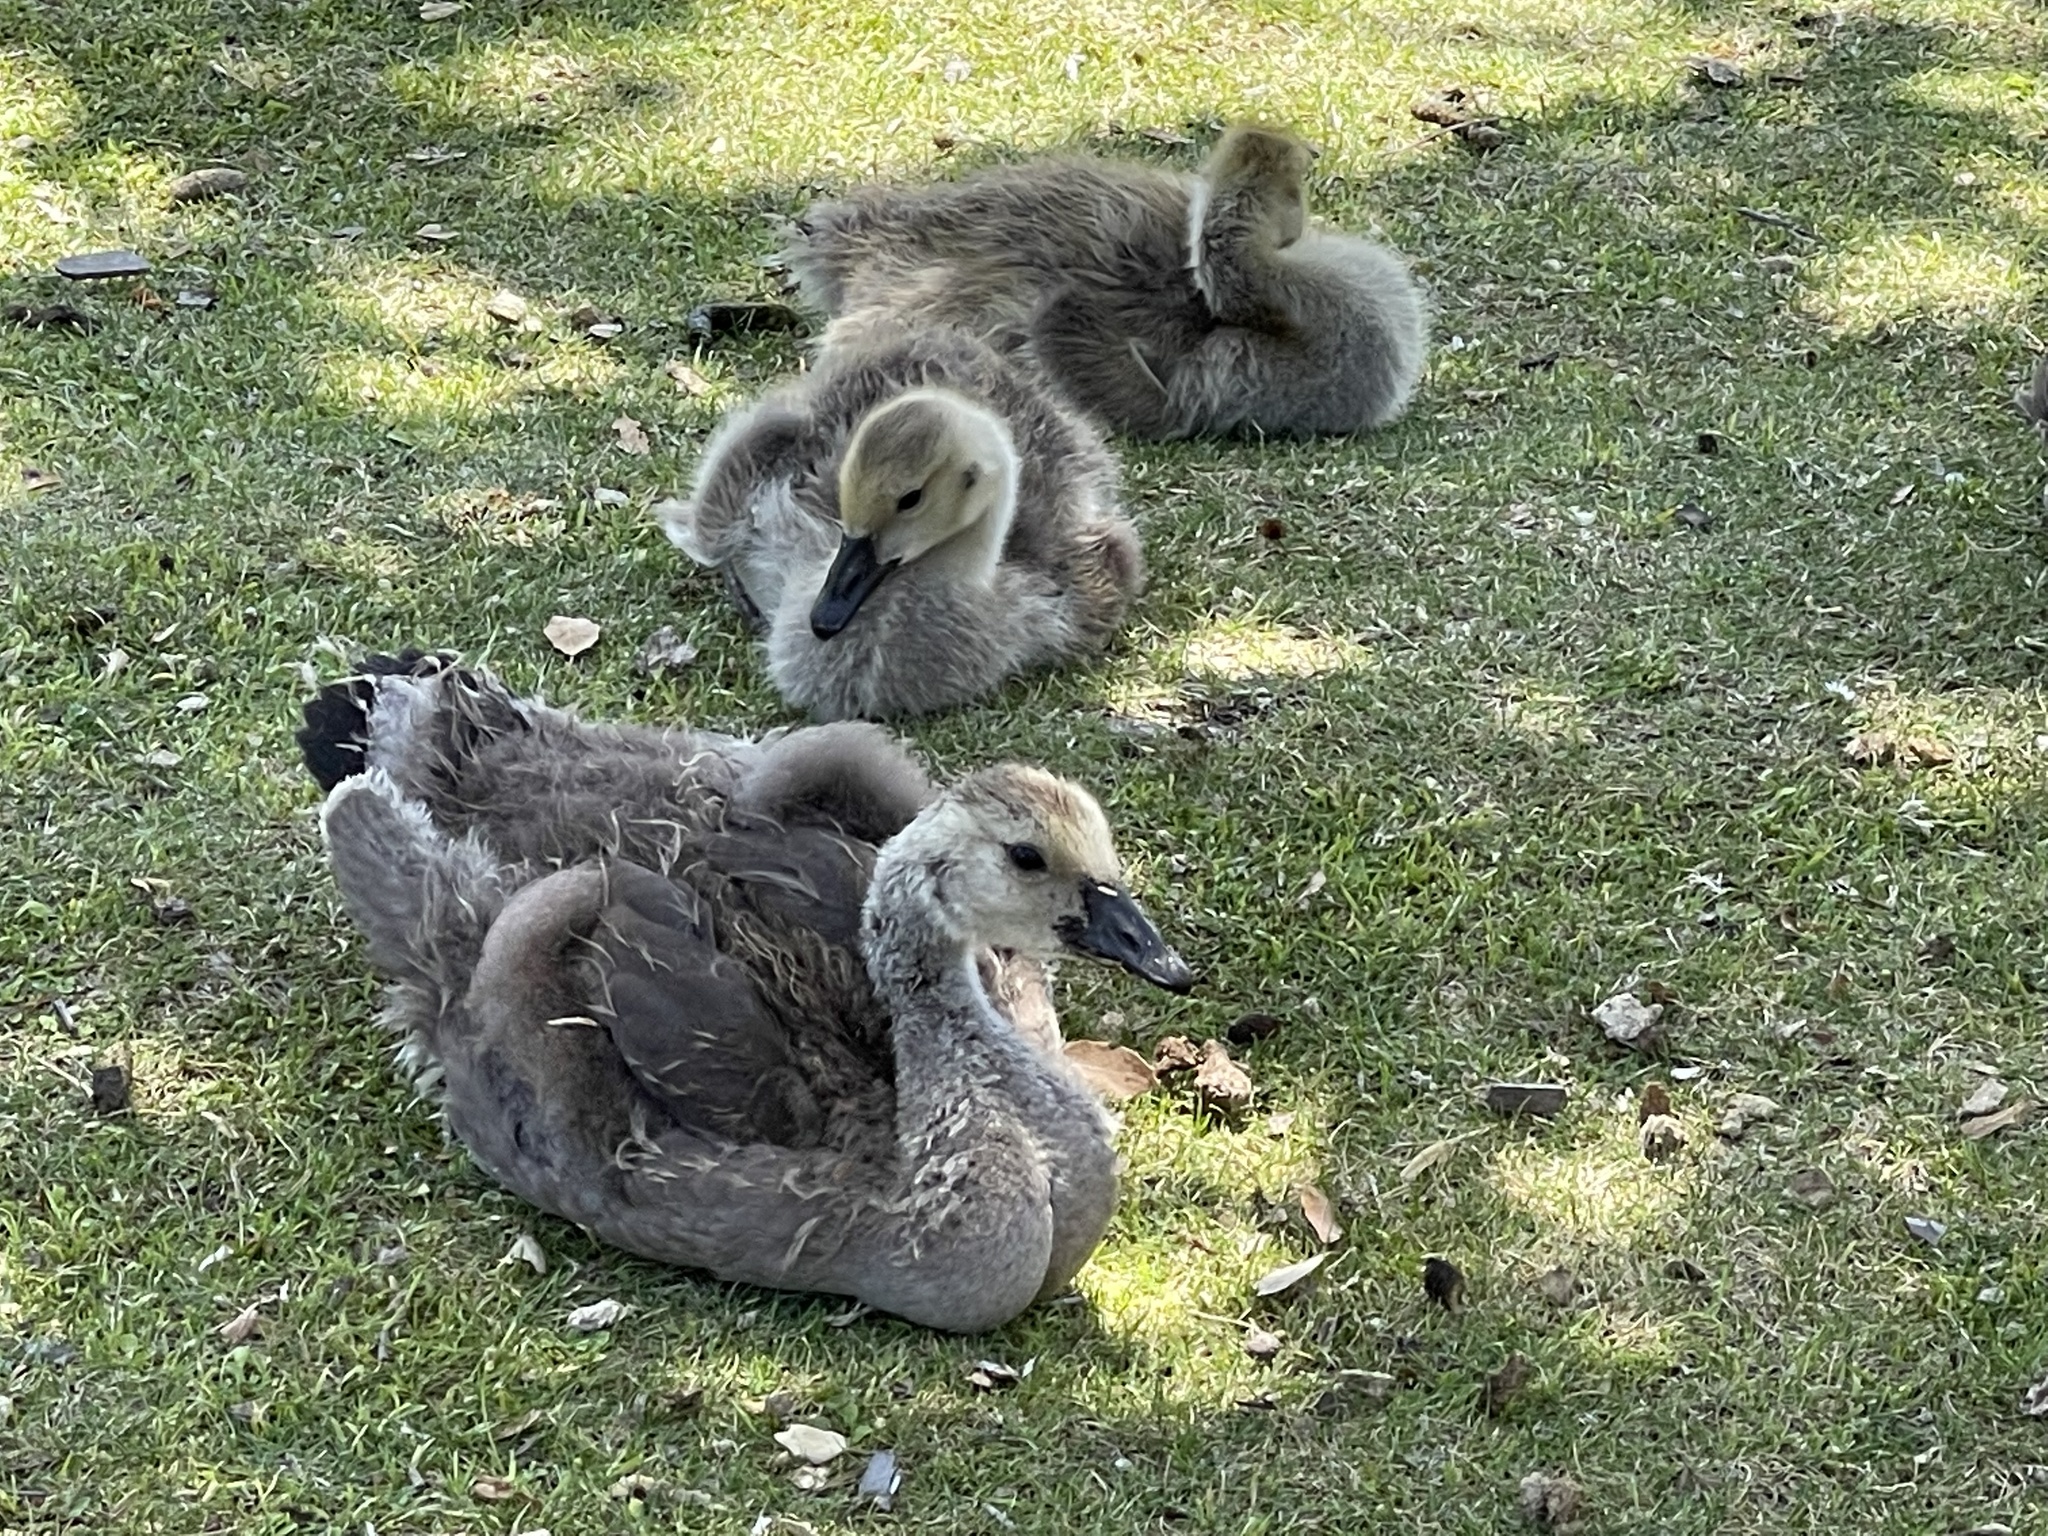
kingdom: Animalia
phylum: Chordata
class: Aves
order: Anseriformes
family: Anatidae
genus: Branta
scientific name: Branta canadensis
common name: Canada goose
